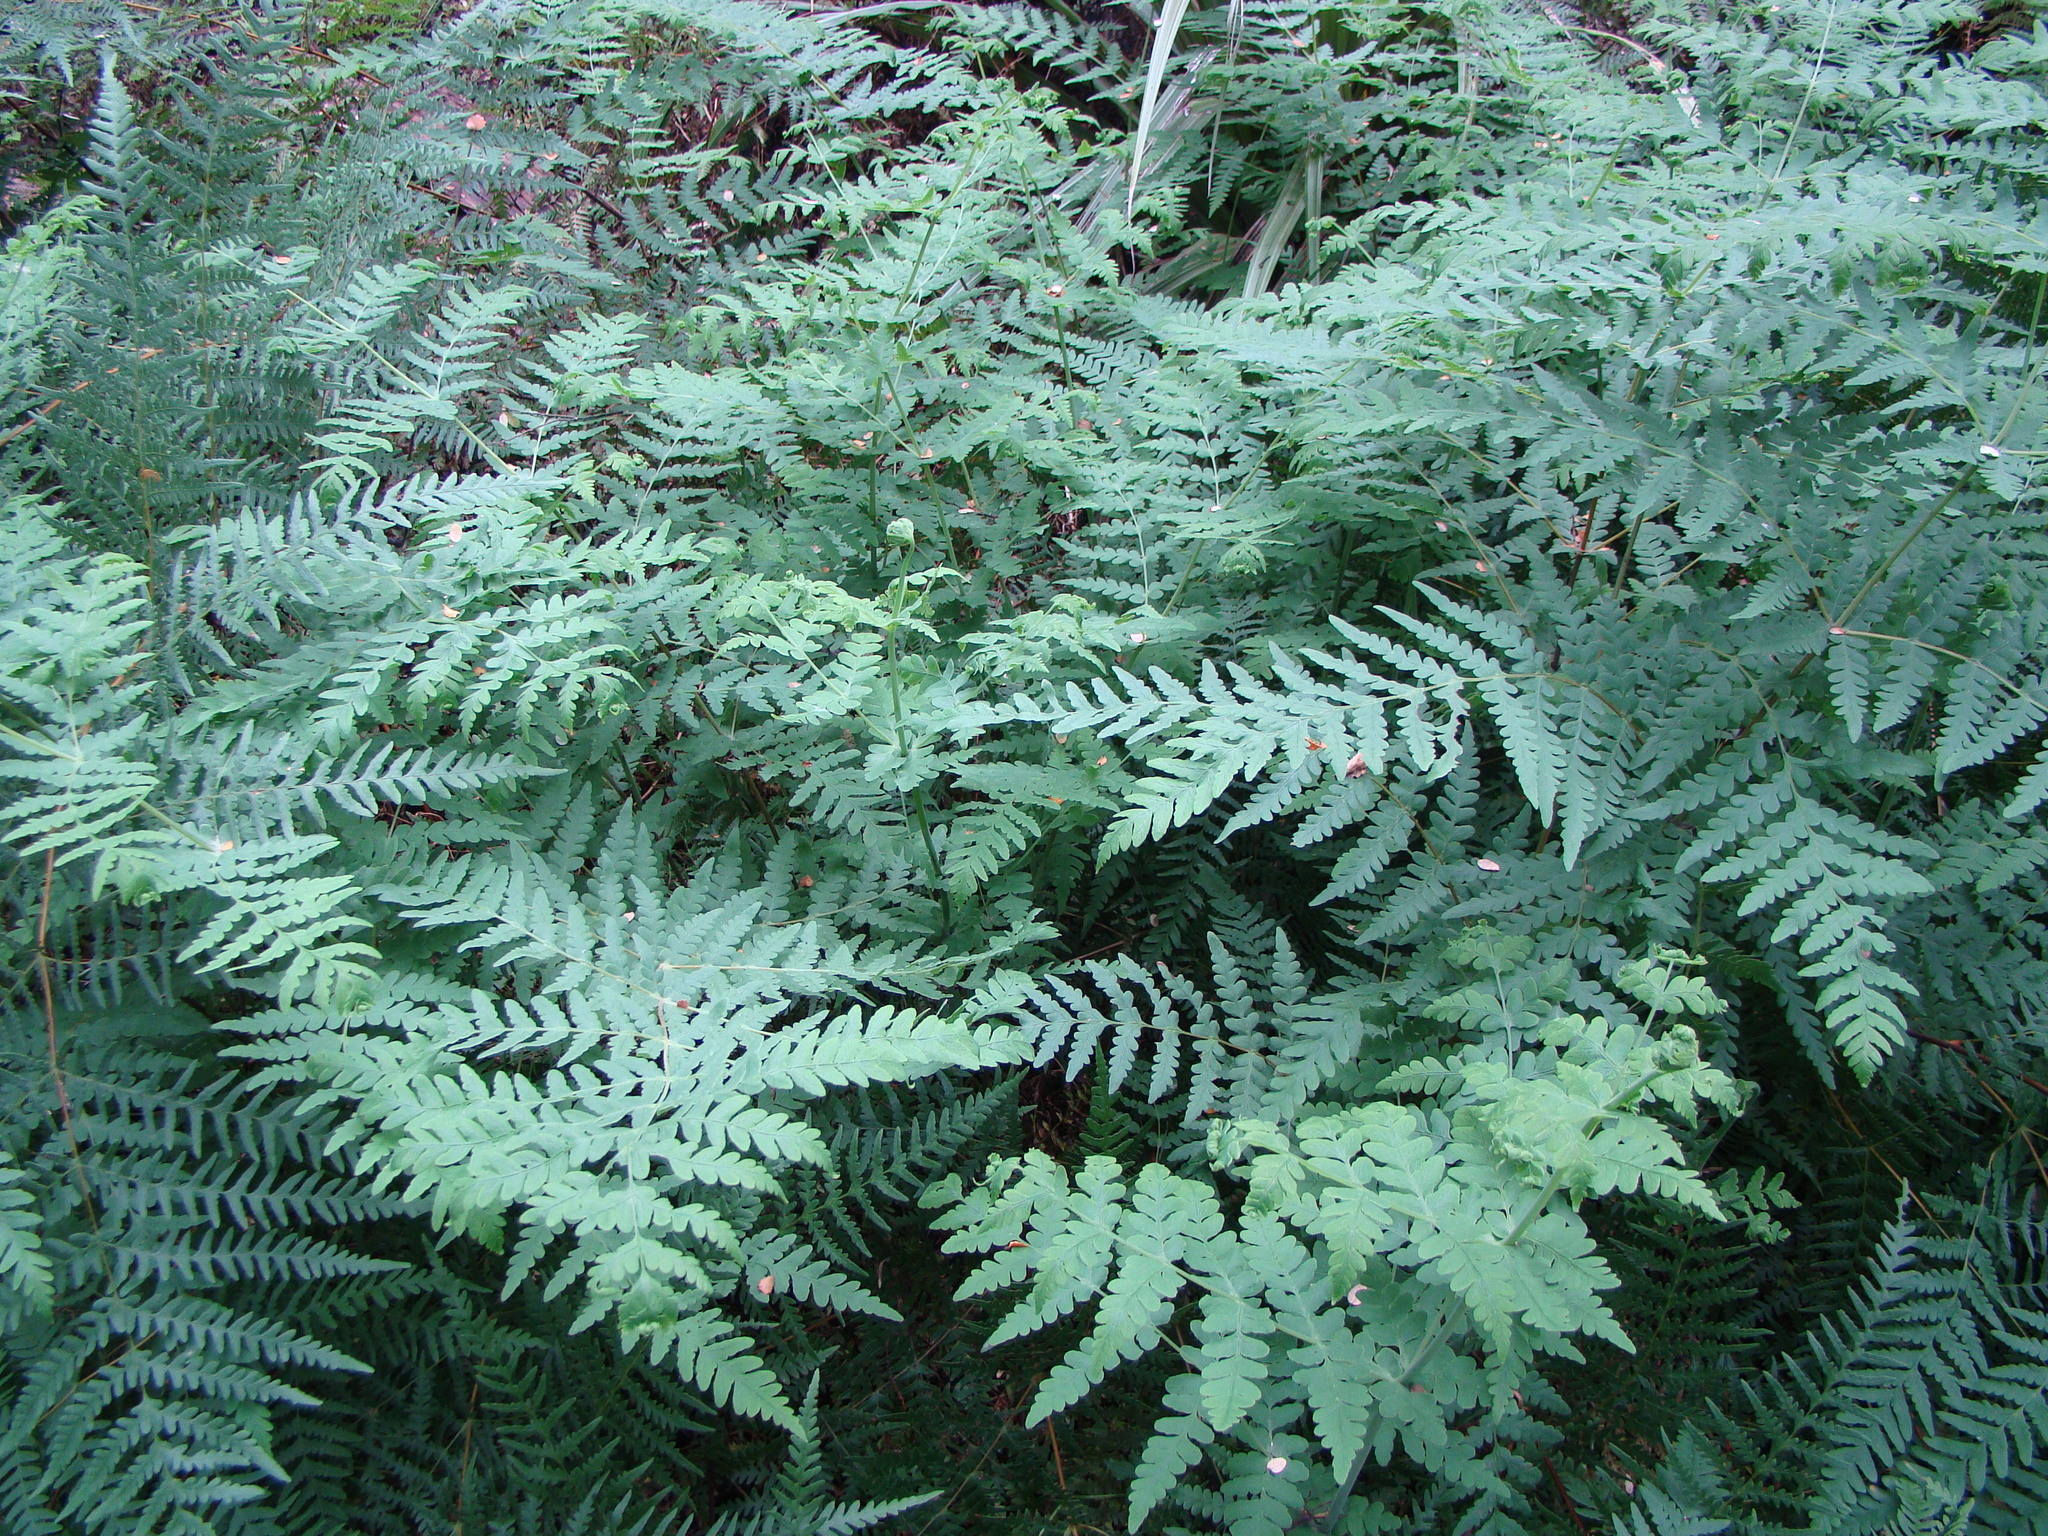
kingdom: Plantae
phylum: Tracheophyta
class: Polypodiopsida
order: Polypodiales
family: Dennstaedtiaceae
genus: Histiopteris
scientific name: Histiopteris incisa
